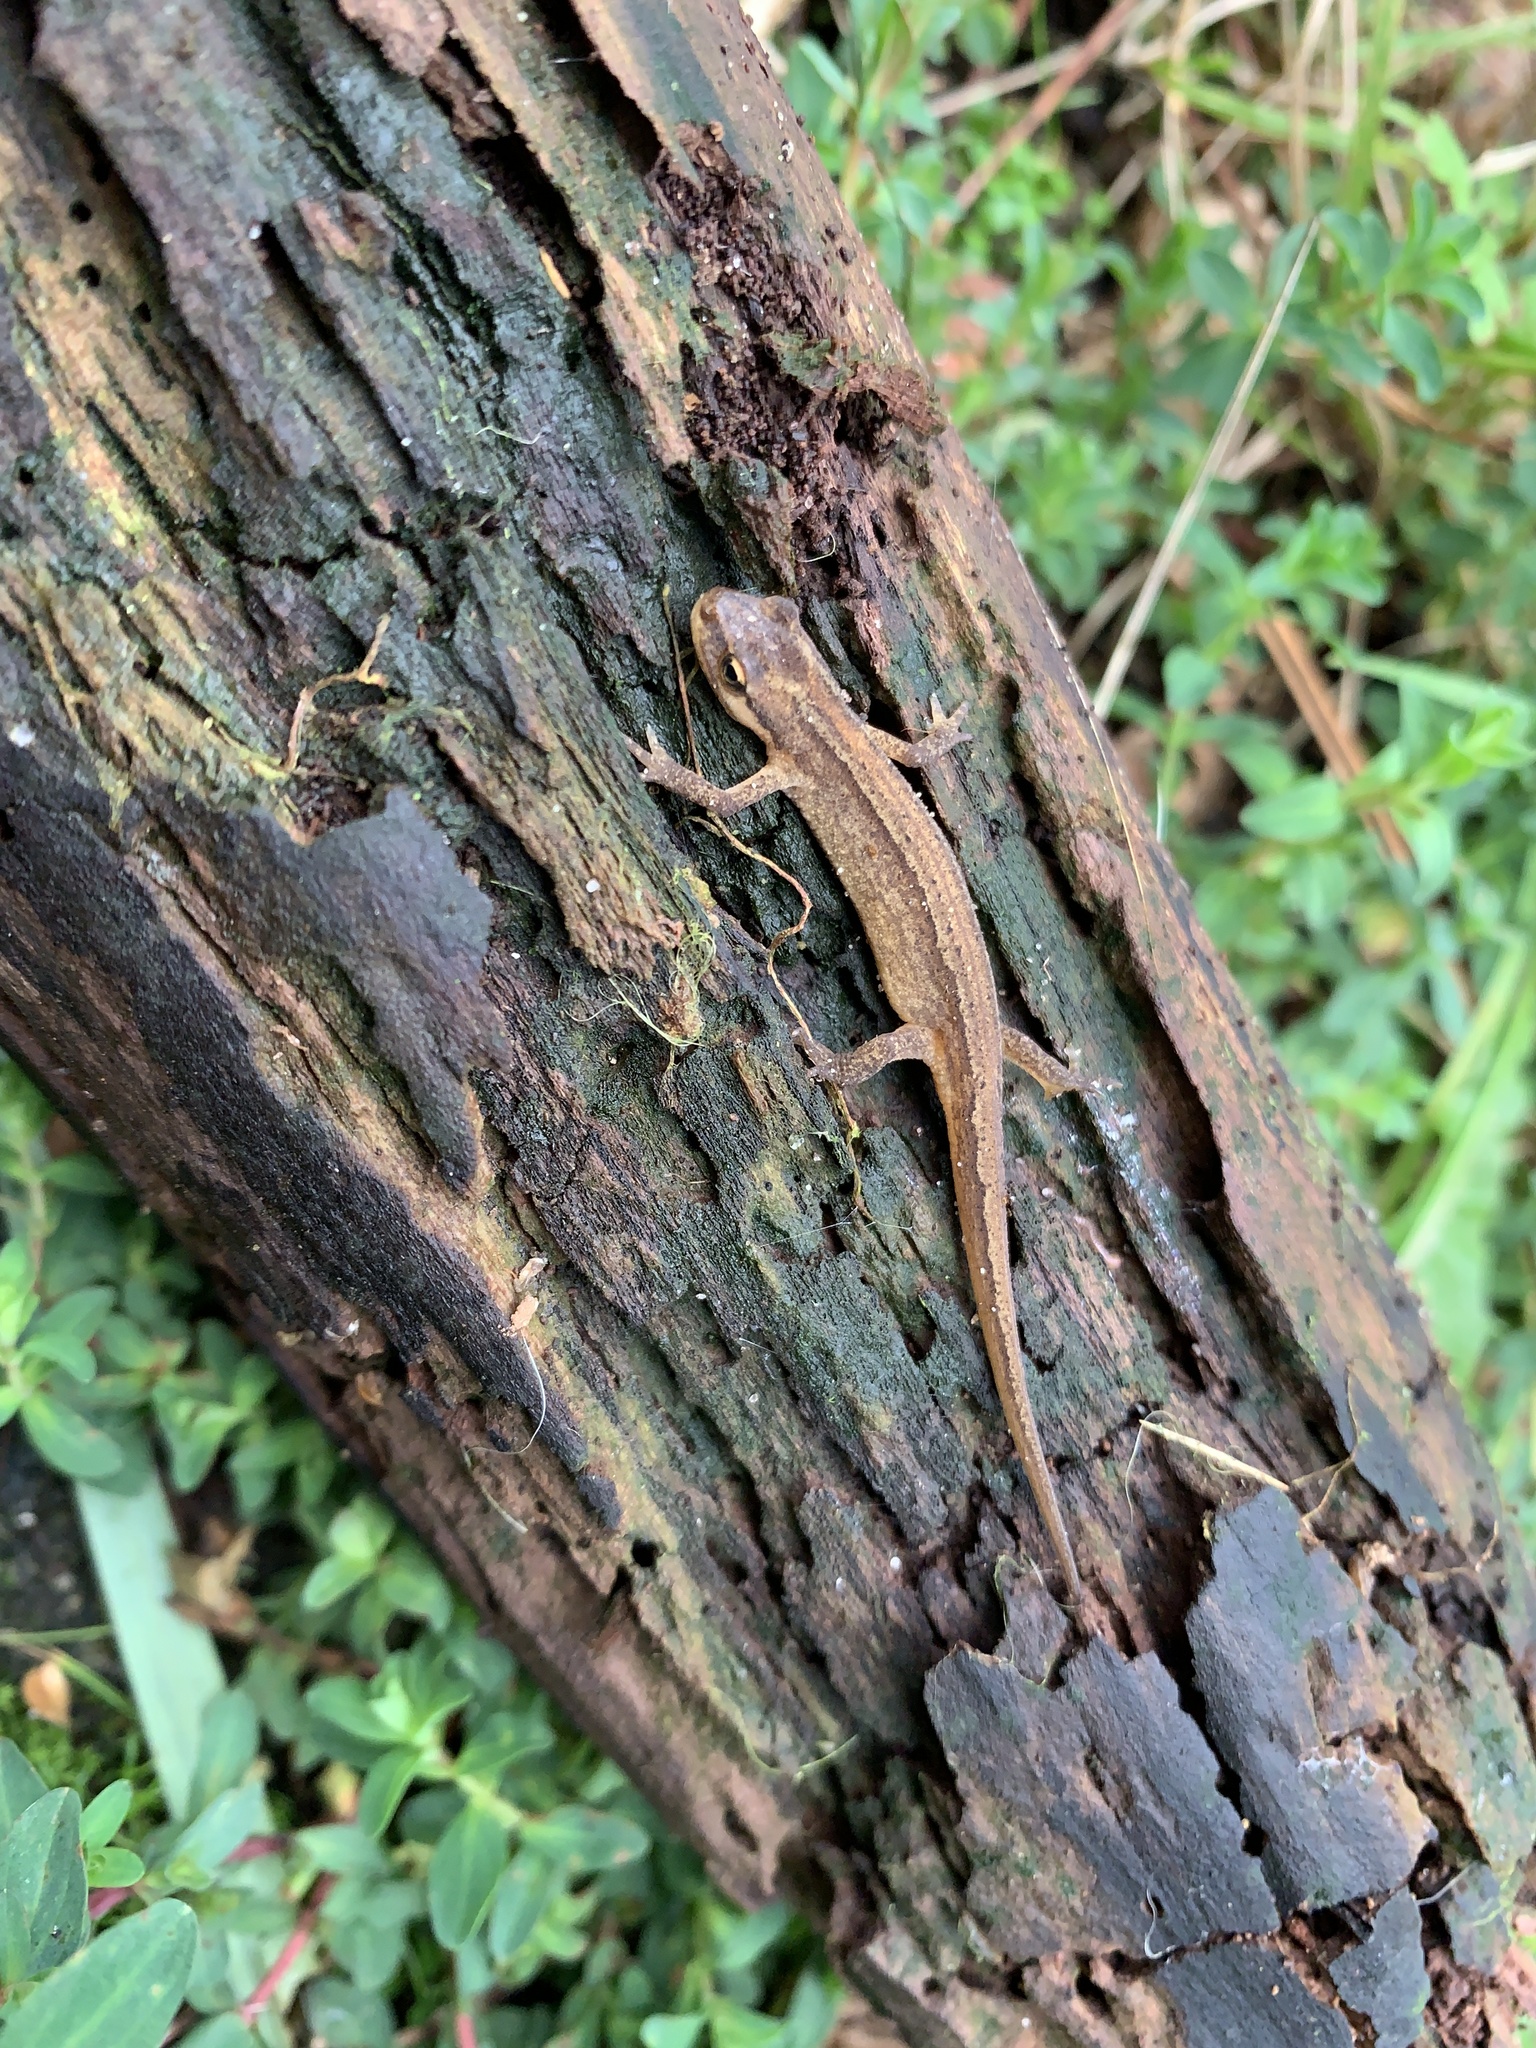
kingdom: Animalia
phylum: Chordata
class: Amphibia
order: Caudata
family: Salamandridae
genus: Lissotriton
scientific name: Lissotriton vulgaris
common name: Smooth newt
